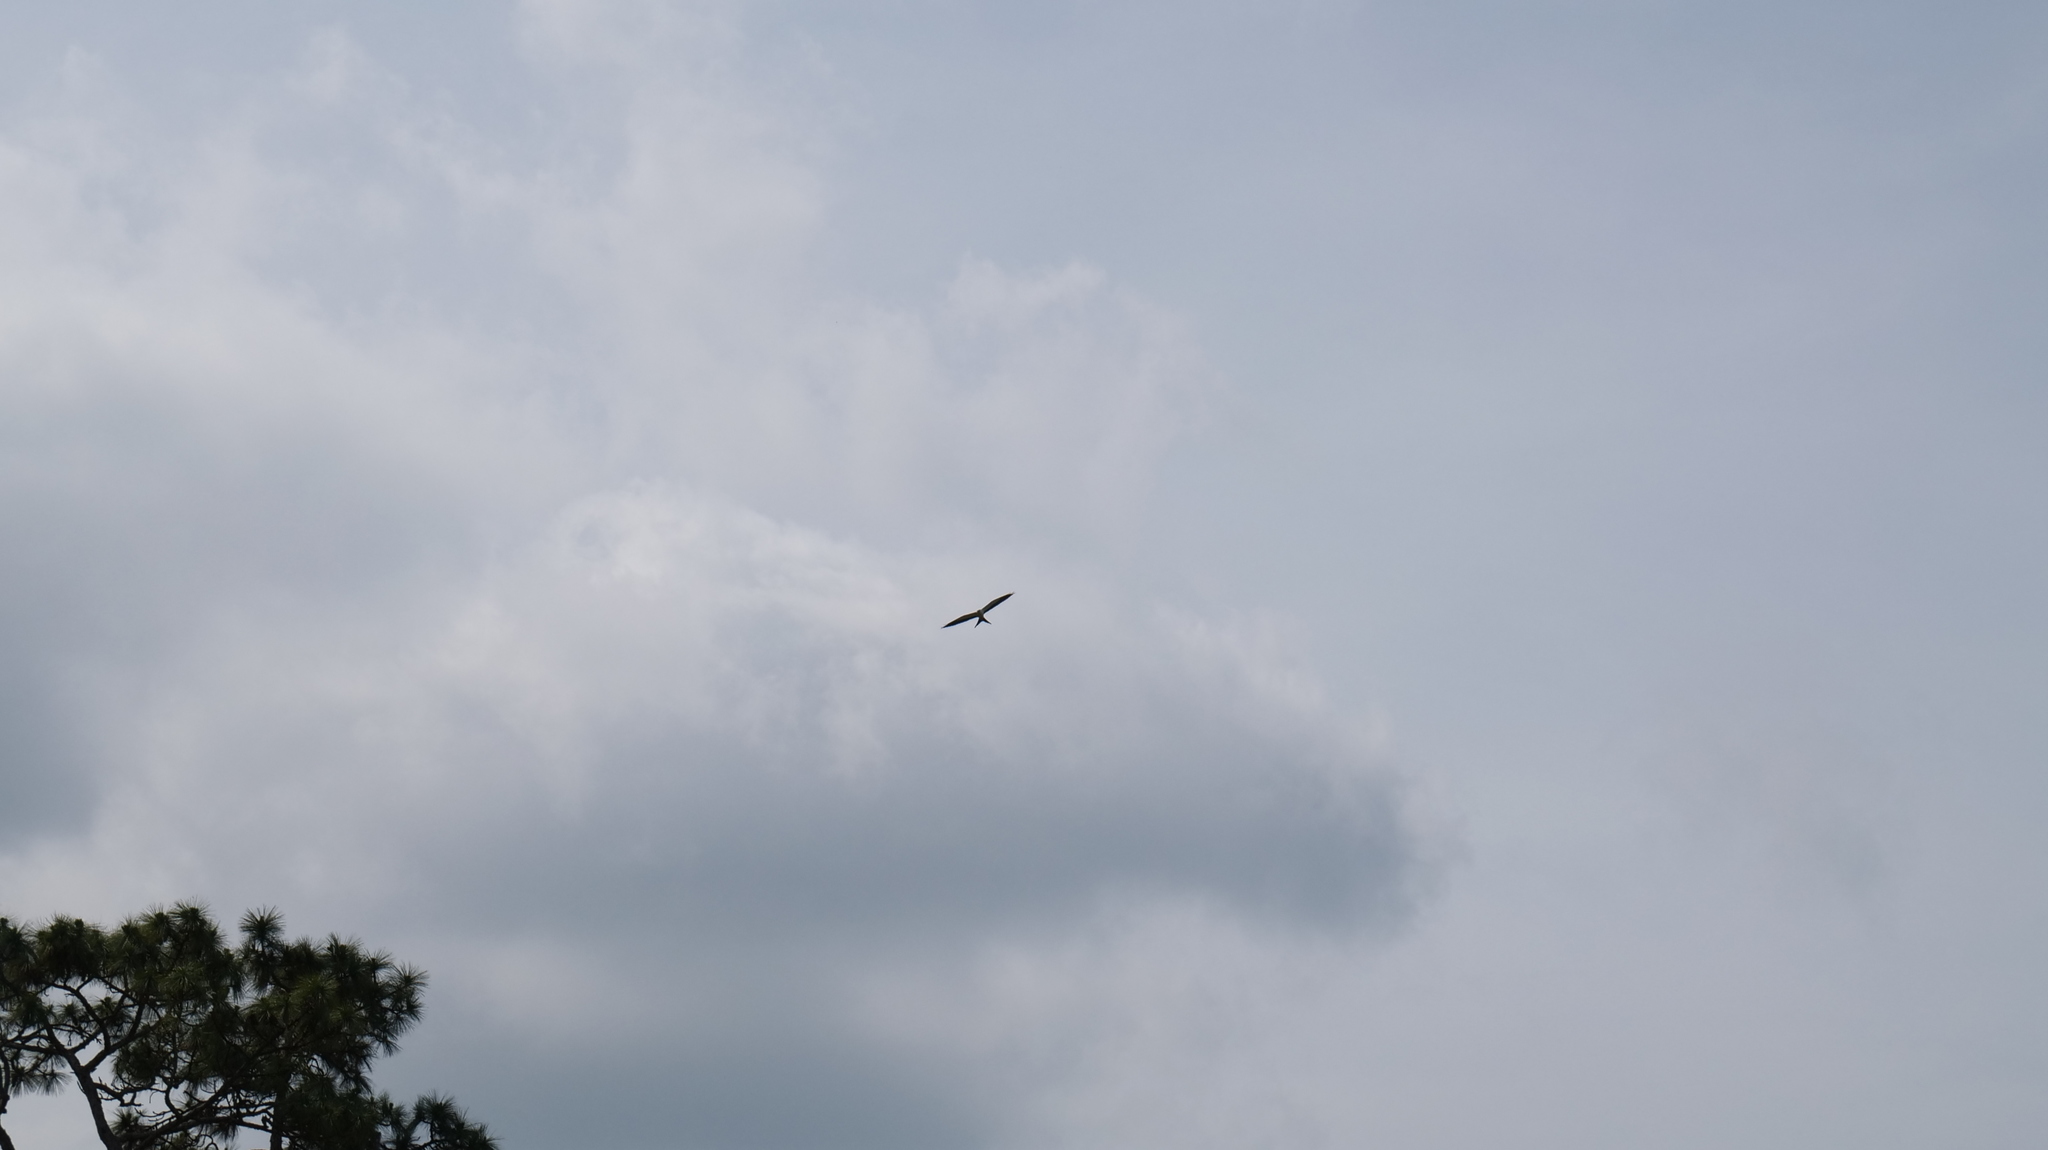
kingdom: Animalia
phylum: Chordata
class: Aves
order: Accipitriformes
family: Accipitridae
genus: Elanoides
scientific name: Elanoides forficatus
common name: Swallow-tailed kite
